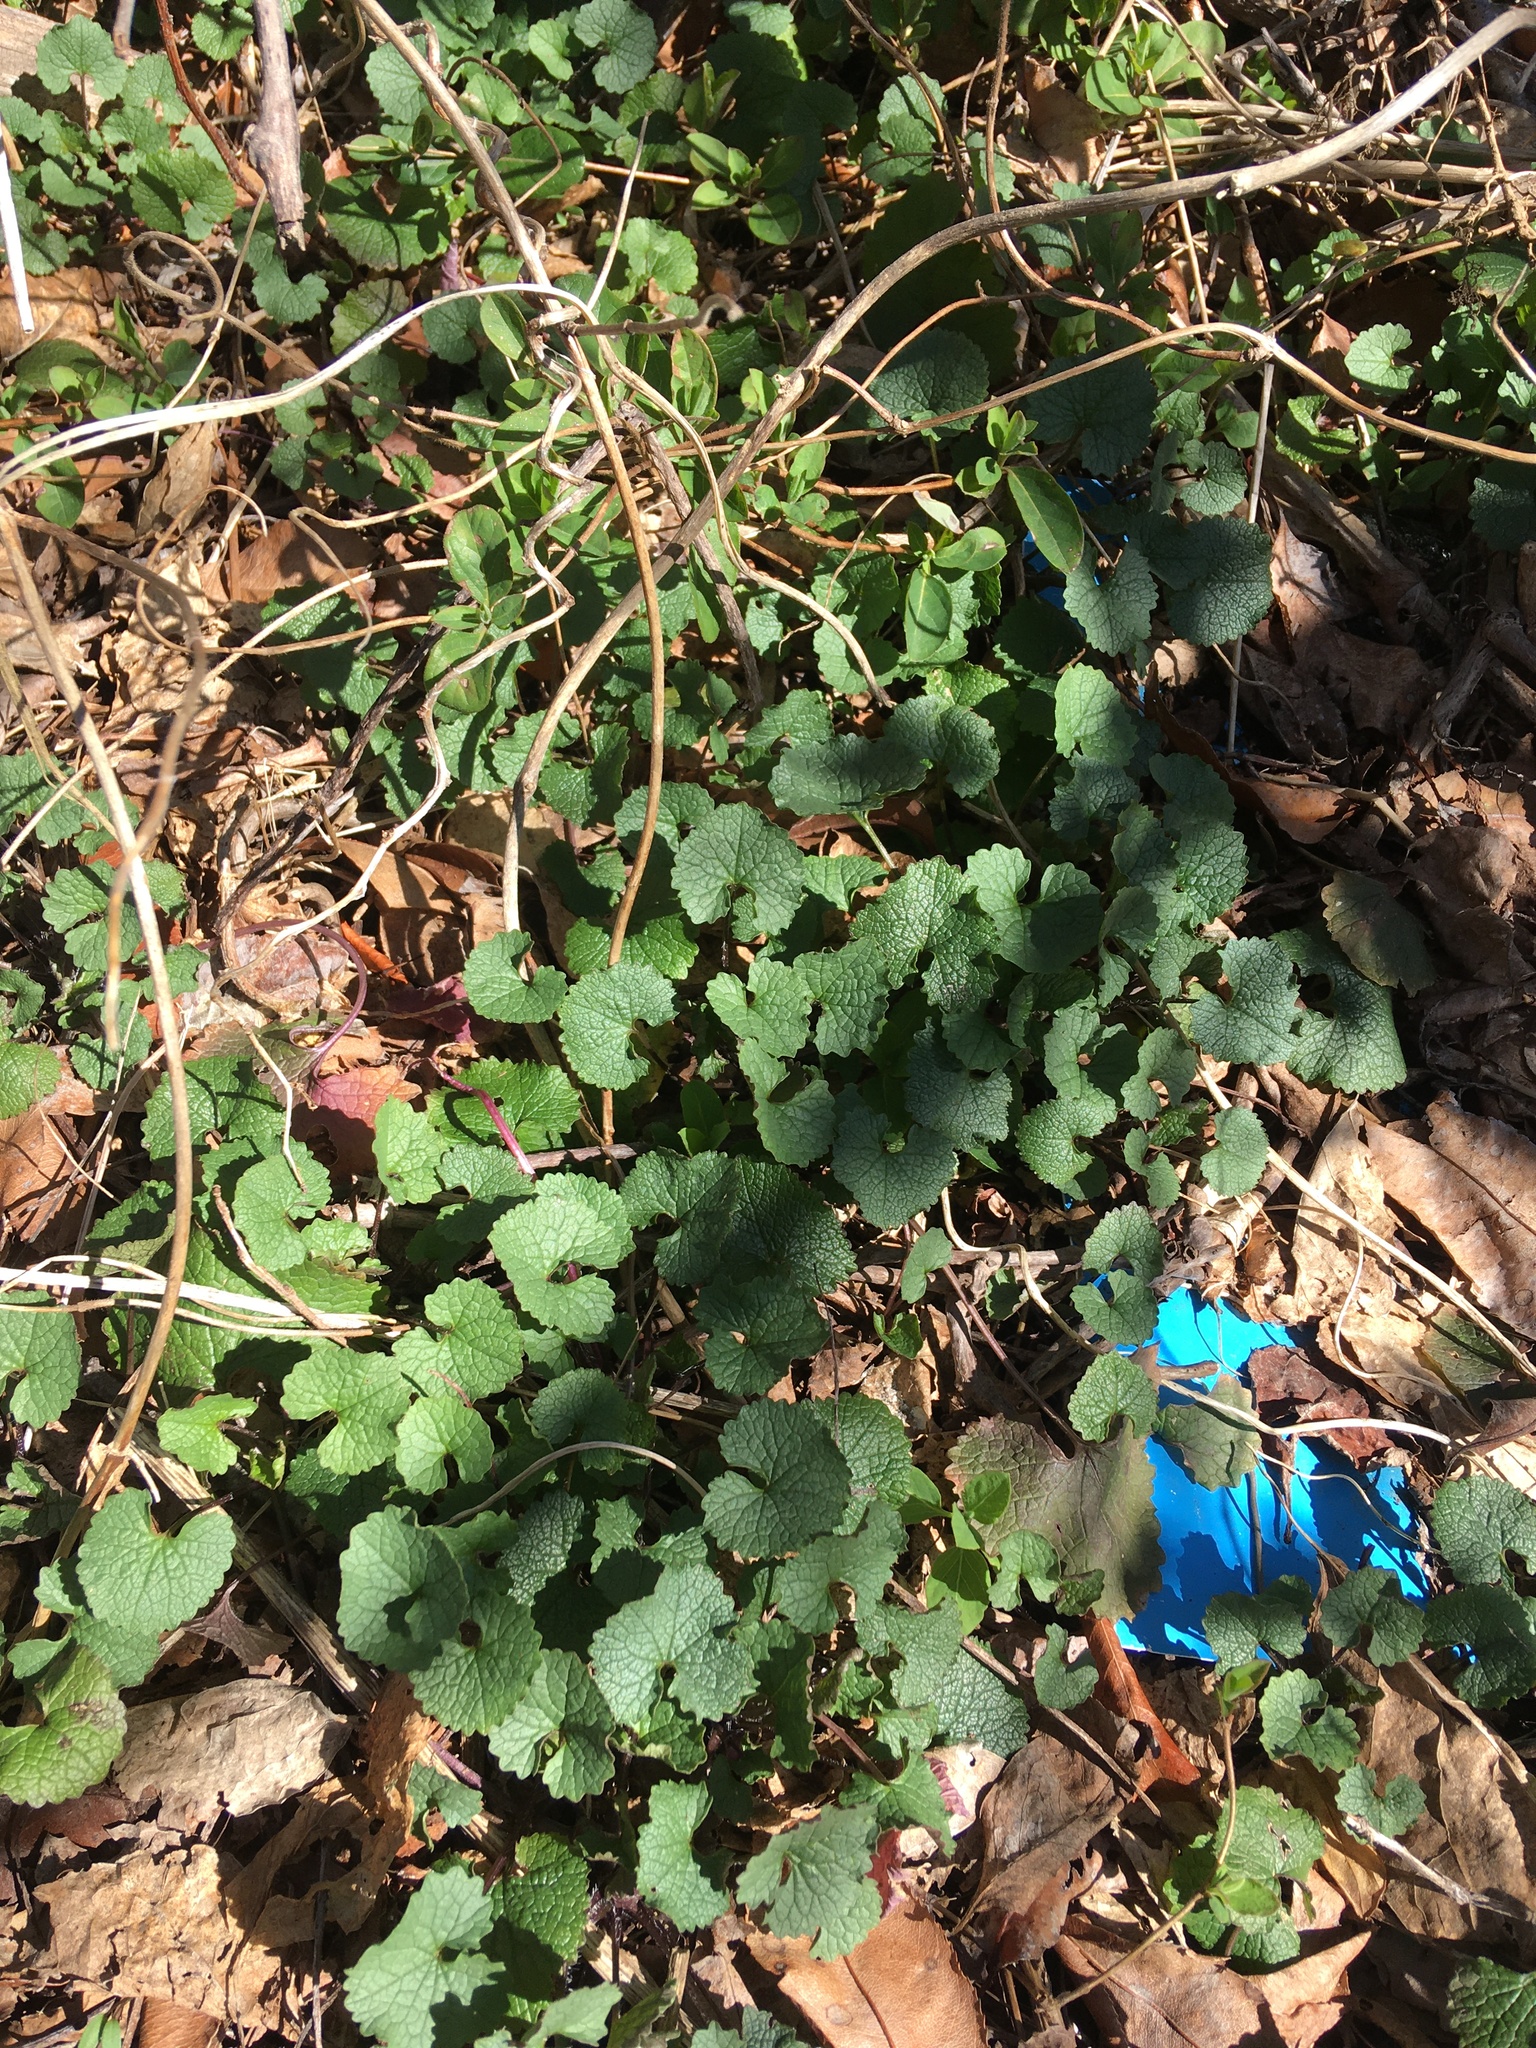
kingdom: Plantae
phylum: Tracheophyta
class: Magnoliopsida
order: Brassicales
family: Brassicaceae
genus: Alliaria
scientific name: Alliaria petiolata
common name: Garlic mustard
